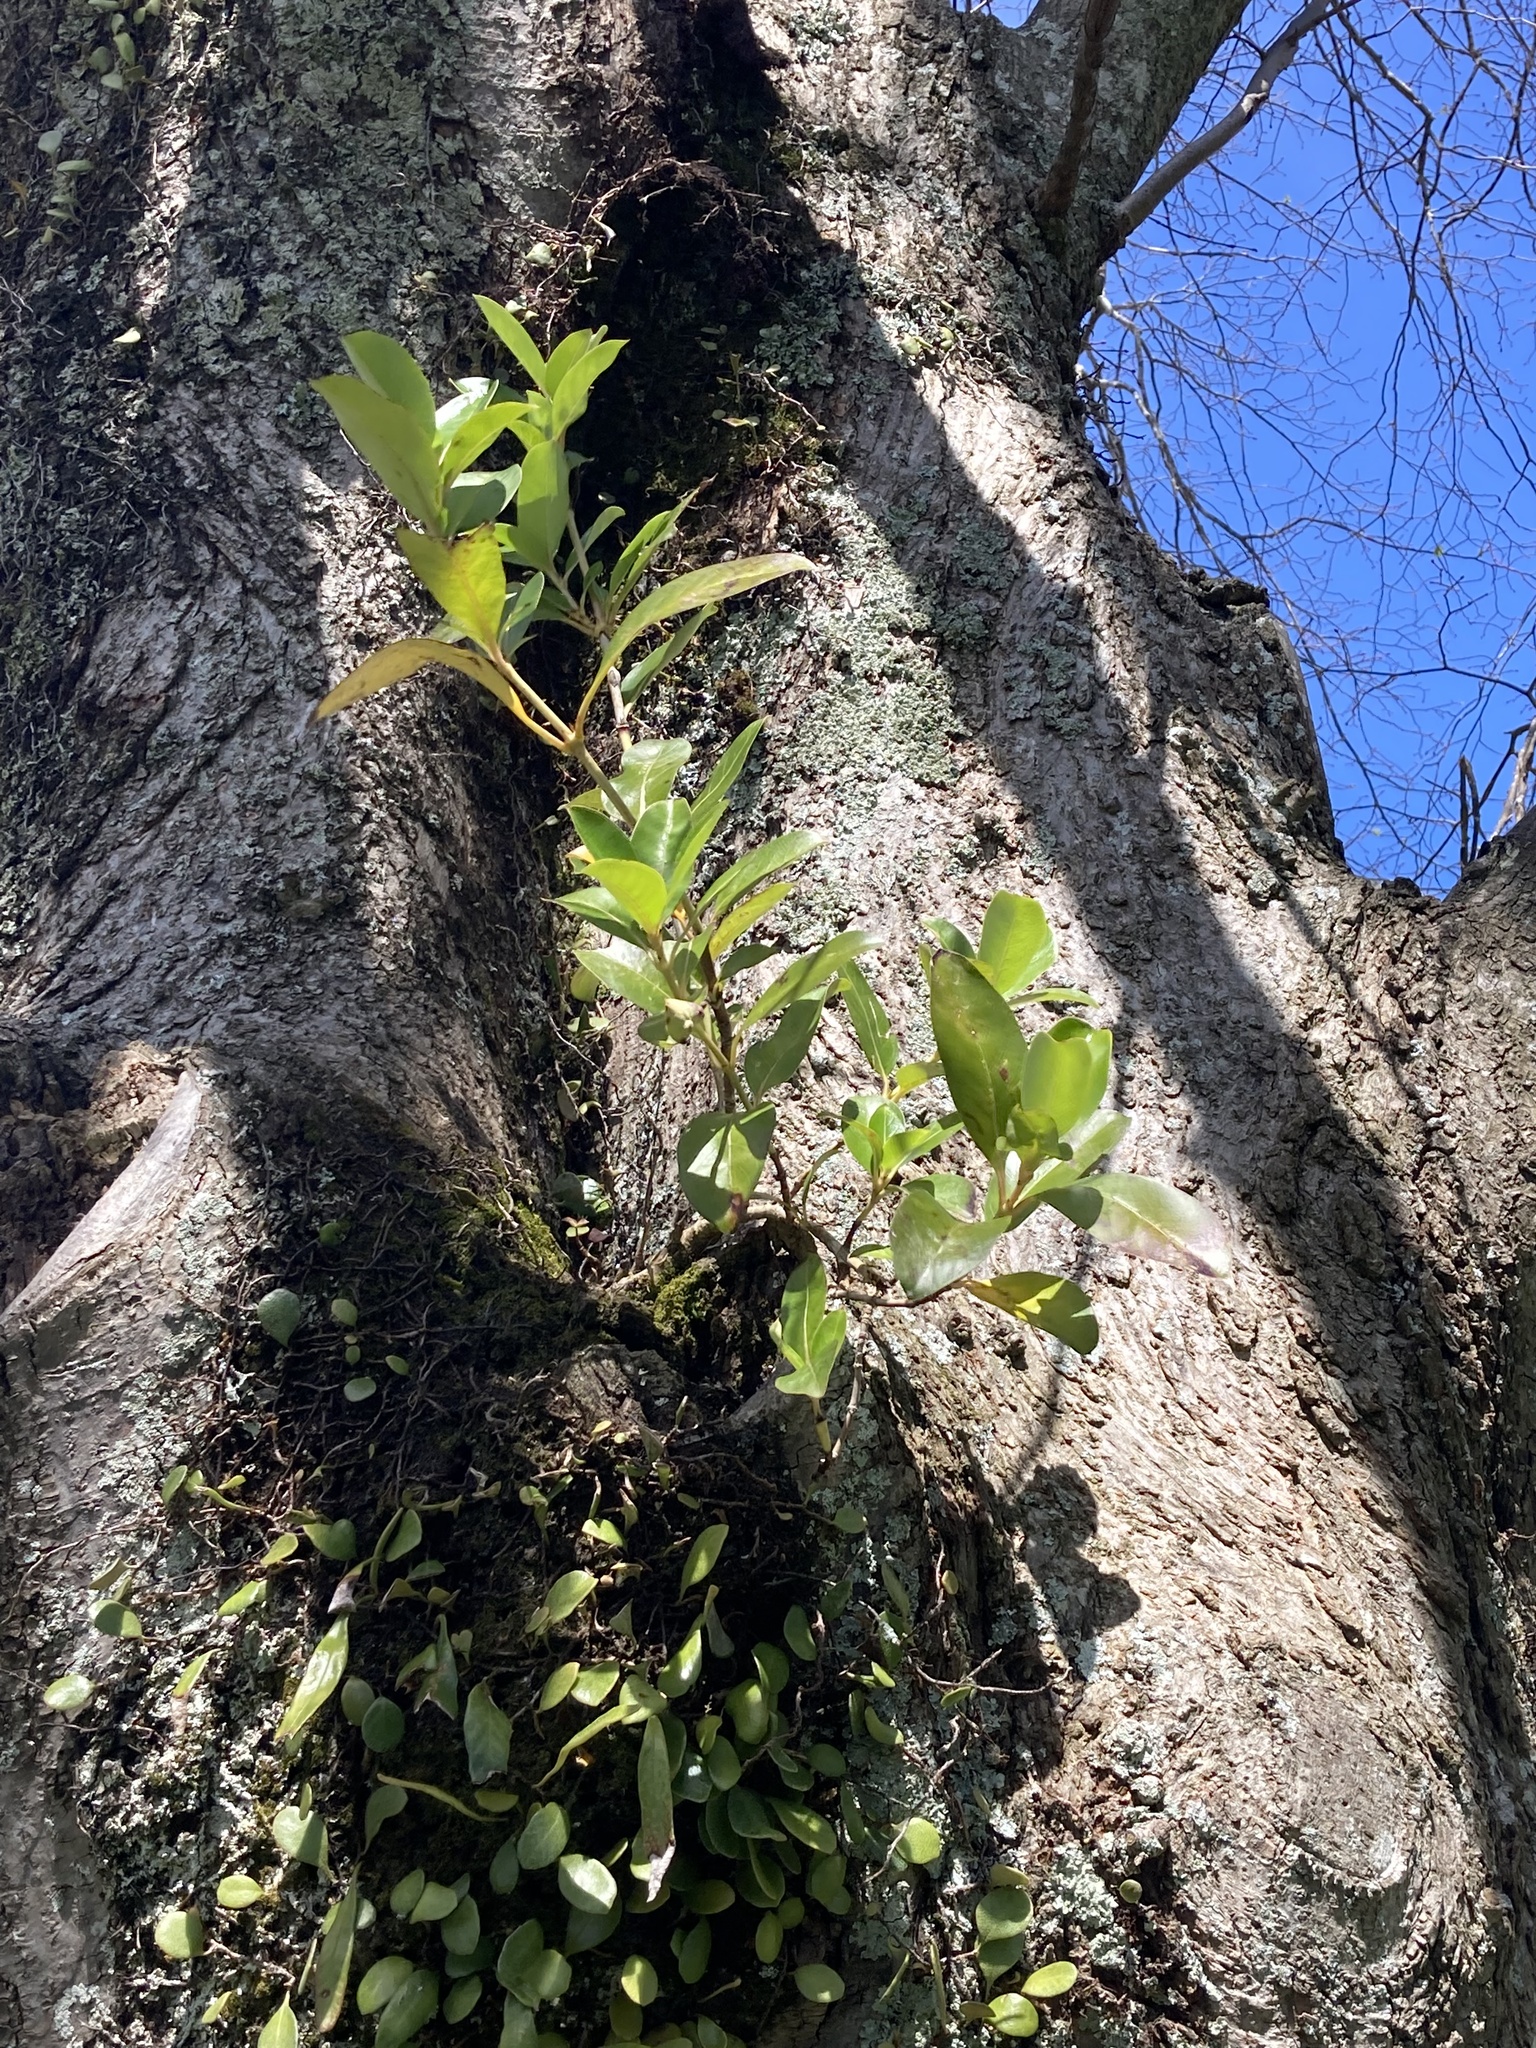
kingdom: Plantae
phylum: Tracheophyta
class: Magnoliopsida
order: Gentianales
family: Rubiaceae
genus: Coprosma
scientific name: Coprosma robusta
